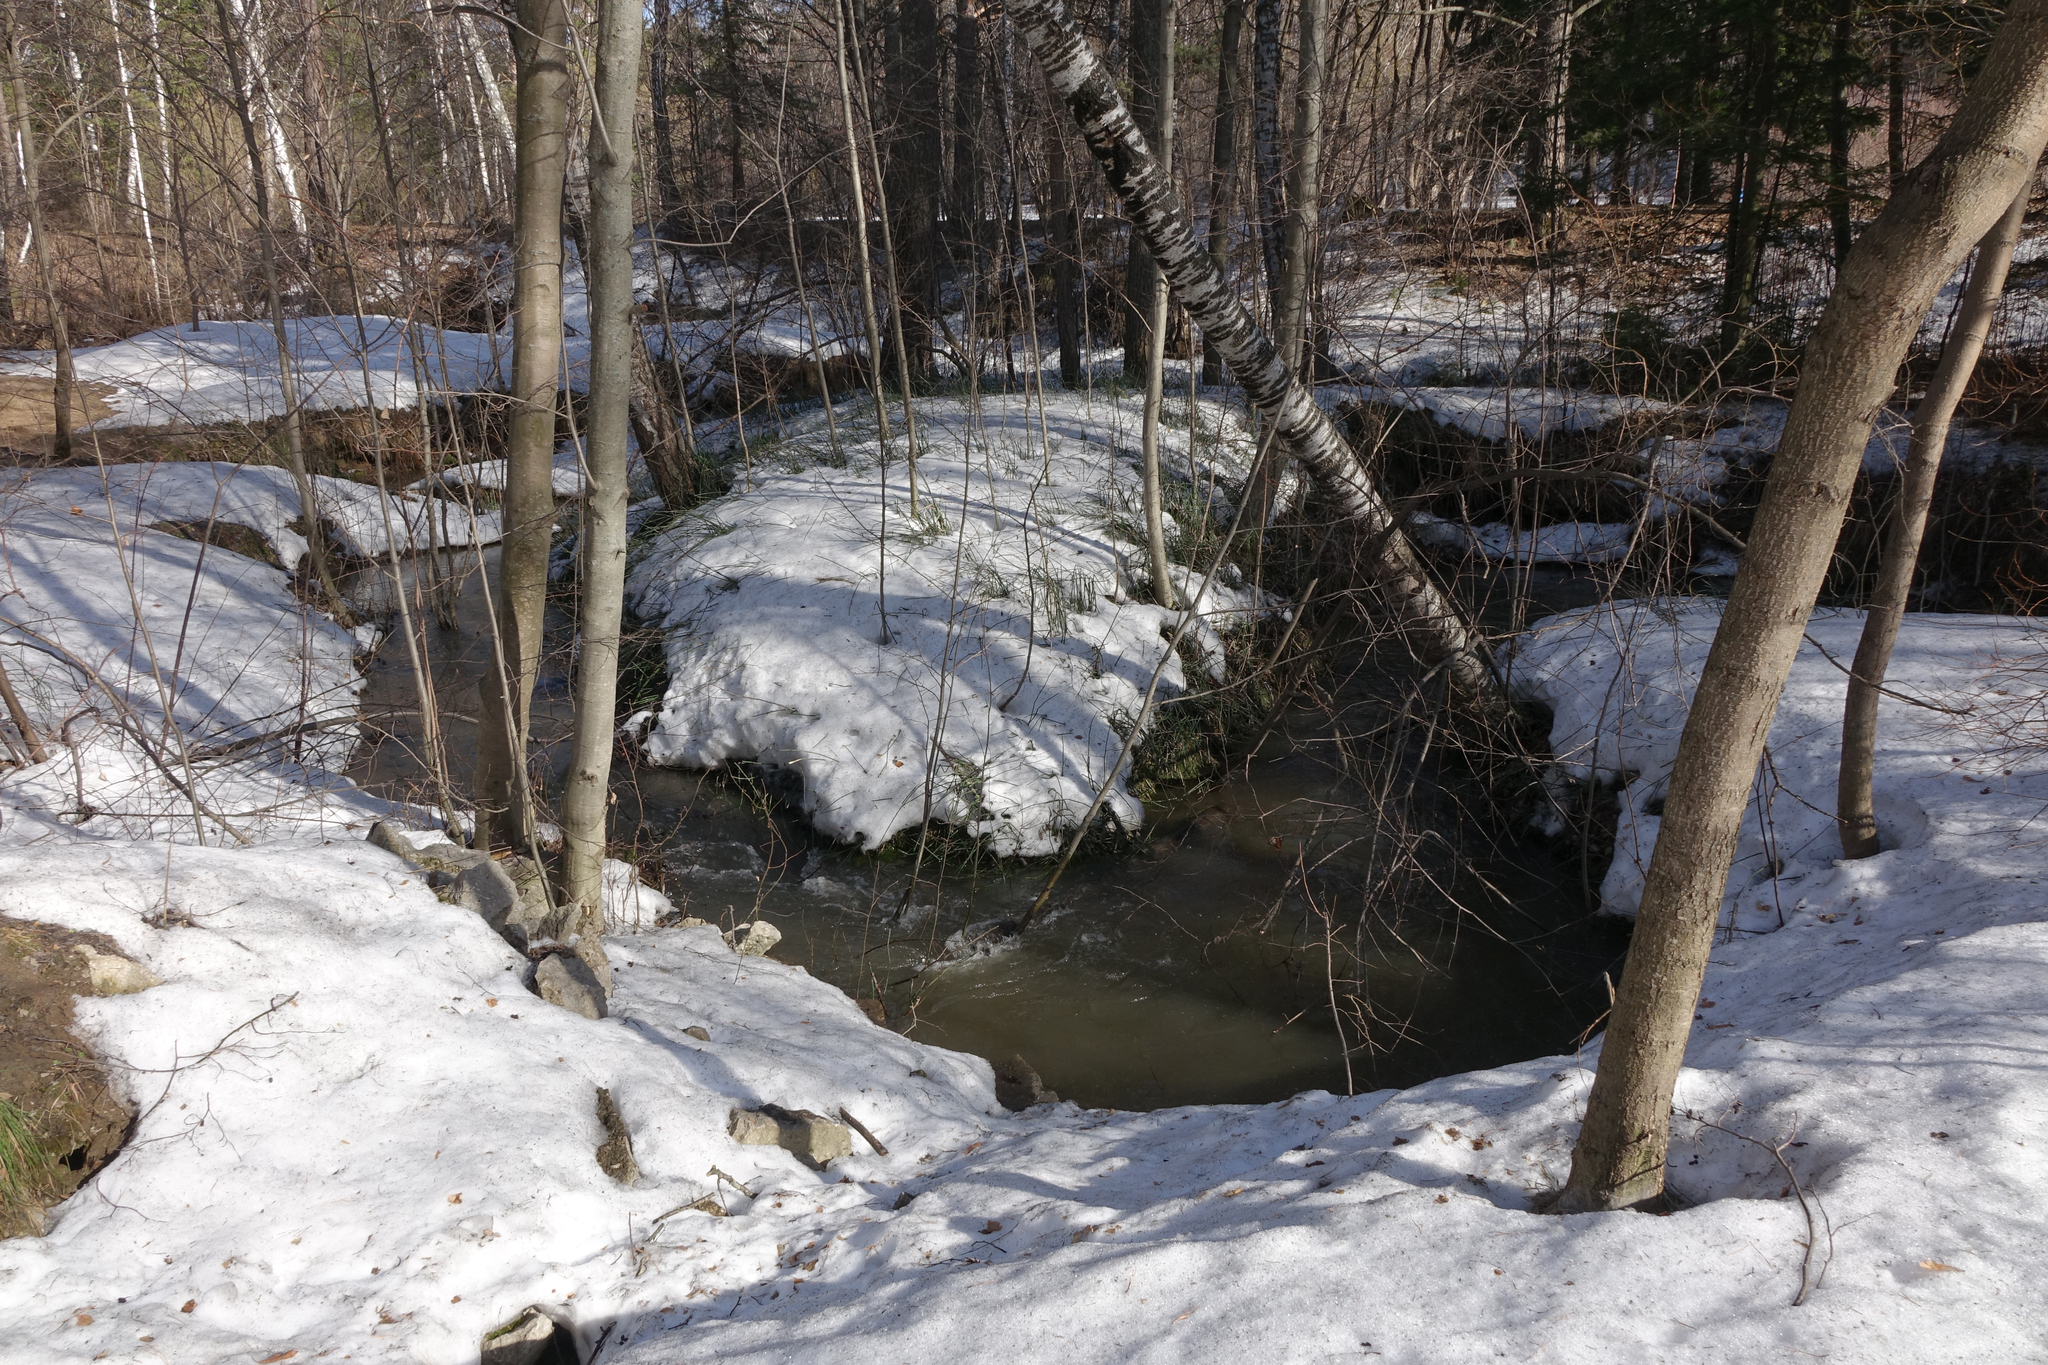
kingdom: Plantae
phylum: Tracheophyta
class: Magnoliopsida
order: Rosales
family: Rosaceae
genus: Prunus
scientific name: Prunus padus
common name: Bird cherry
